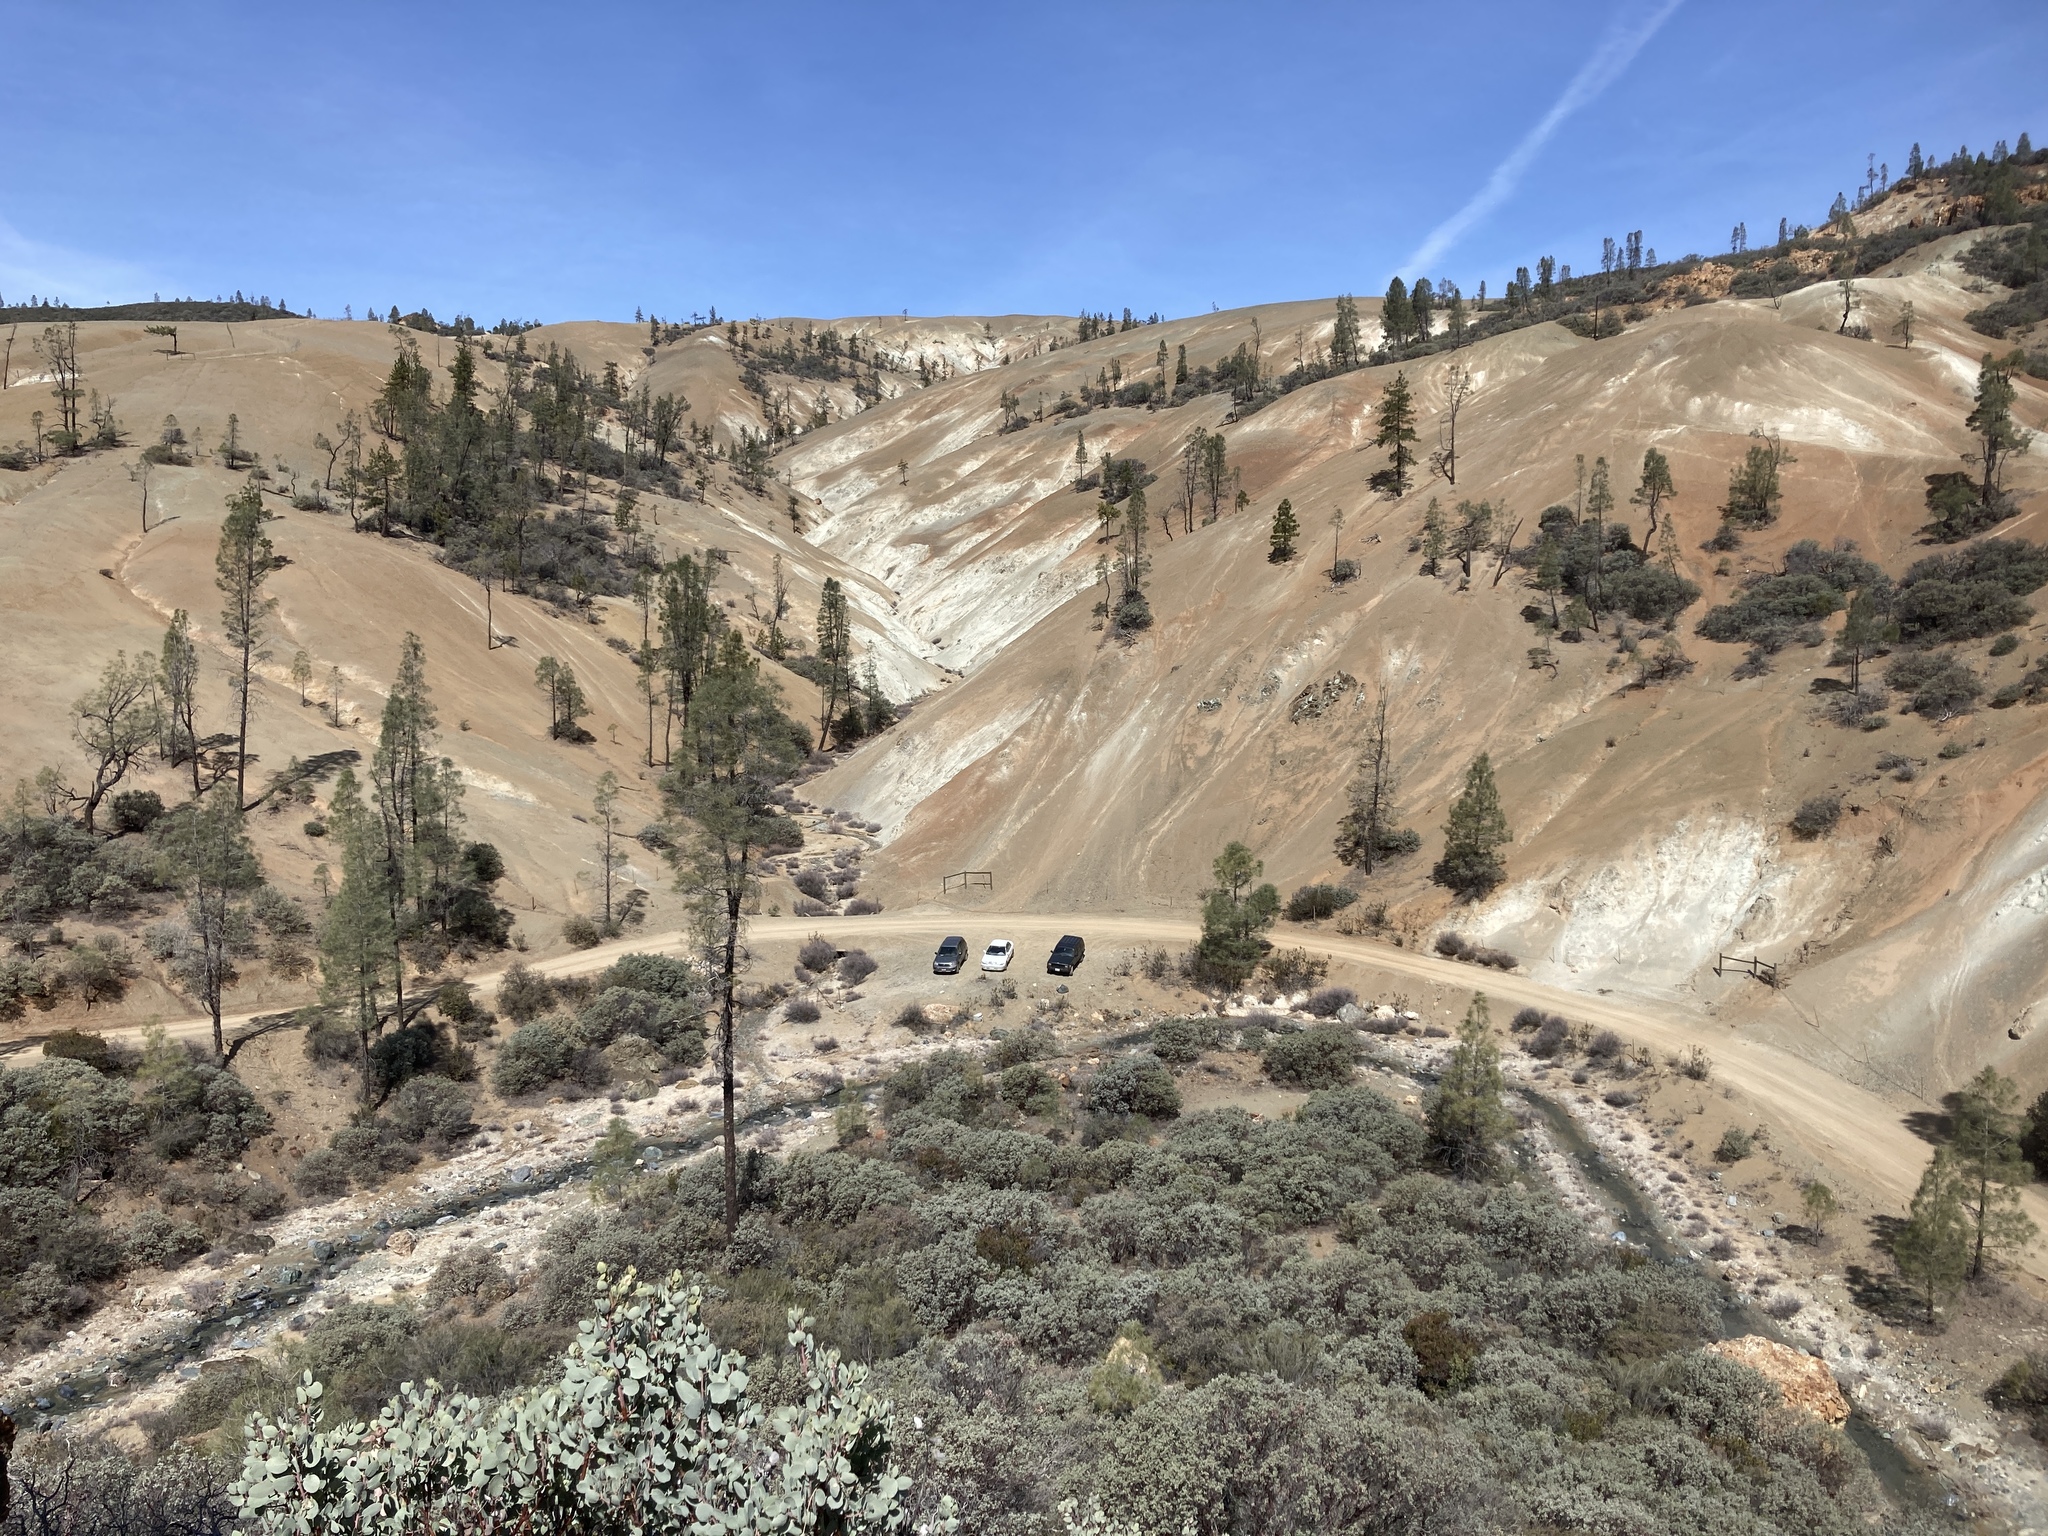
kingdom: Plantae
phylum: Tracheophyta
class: Magnoliopsida
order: Ericales
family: Ericaceae
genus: Arctostaphylos
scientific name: Arctostaphylos glauca
